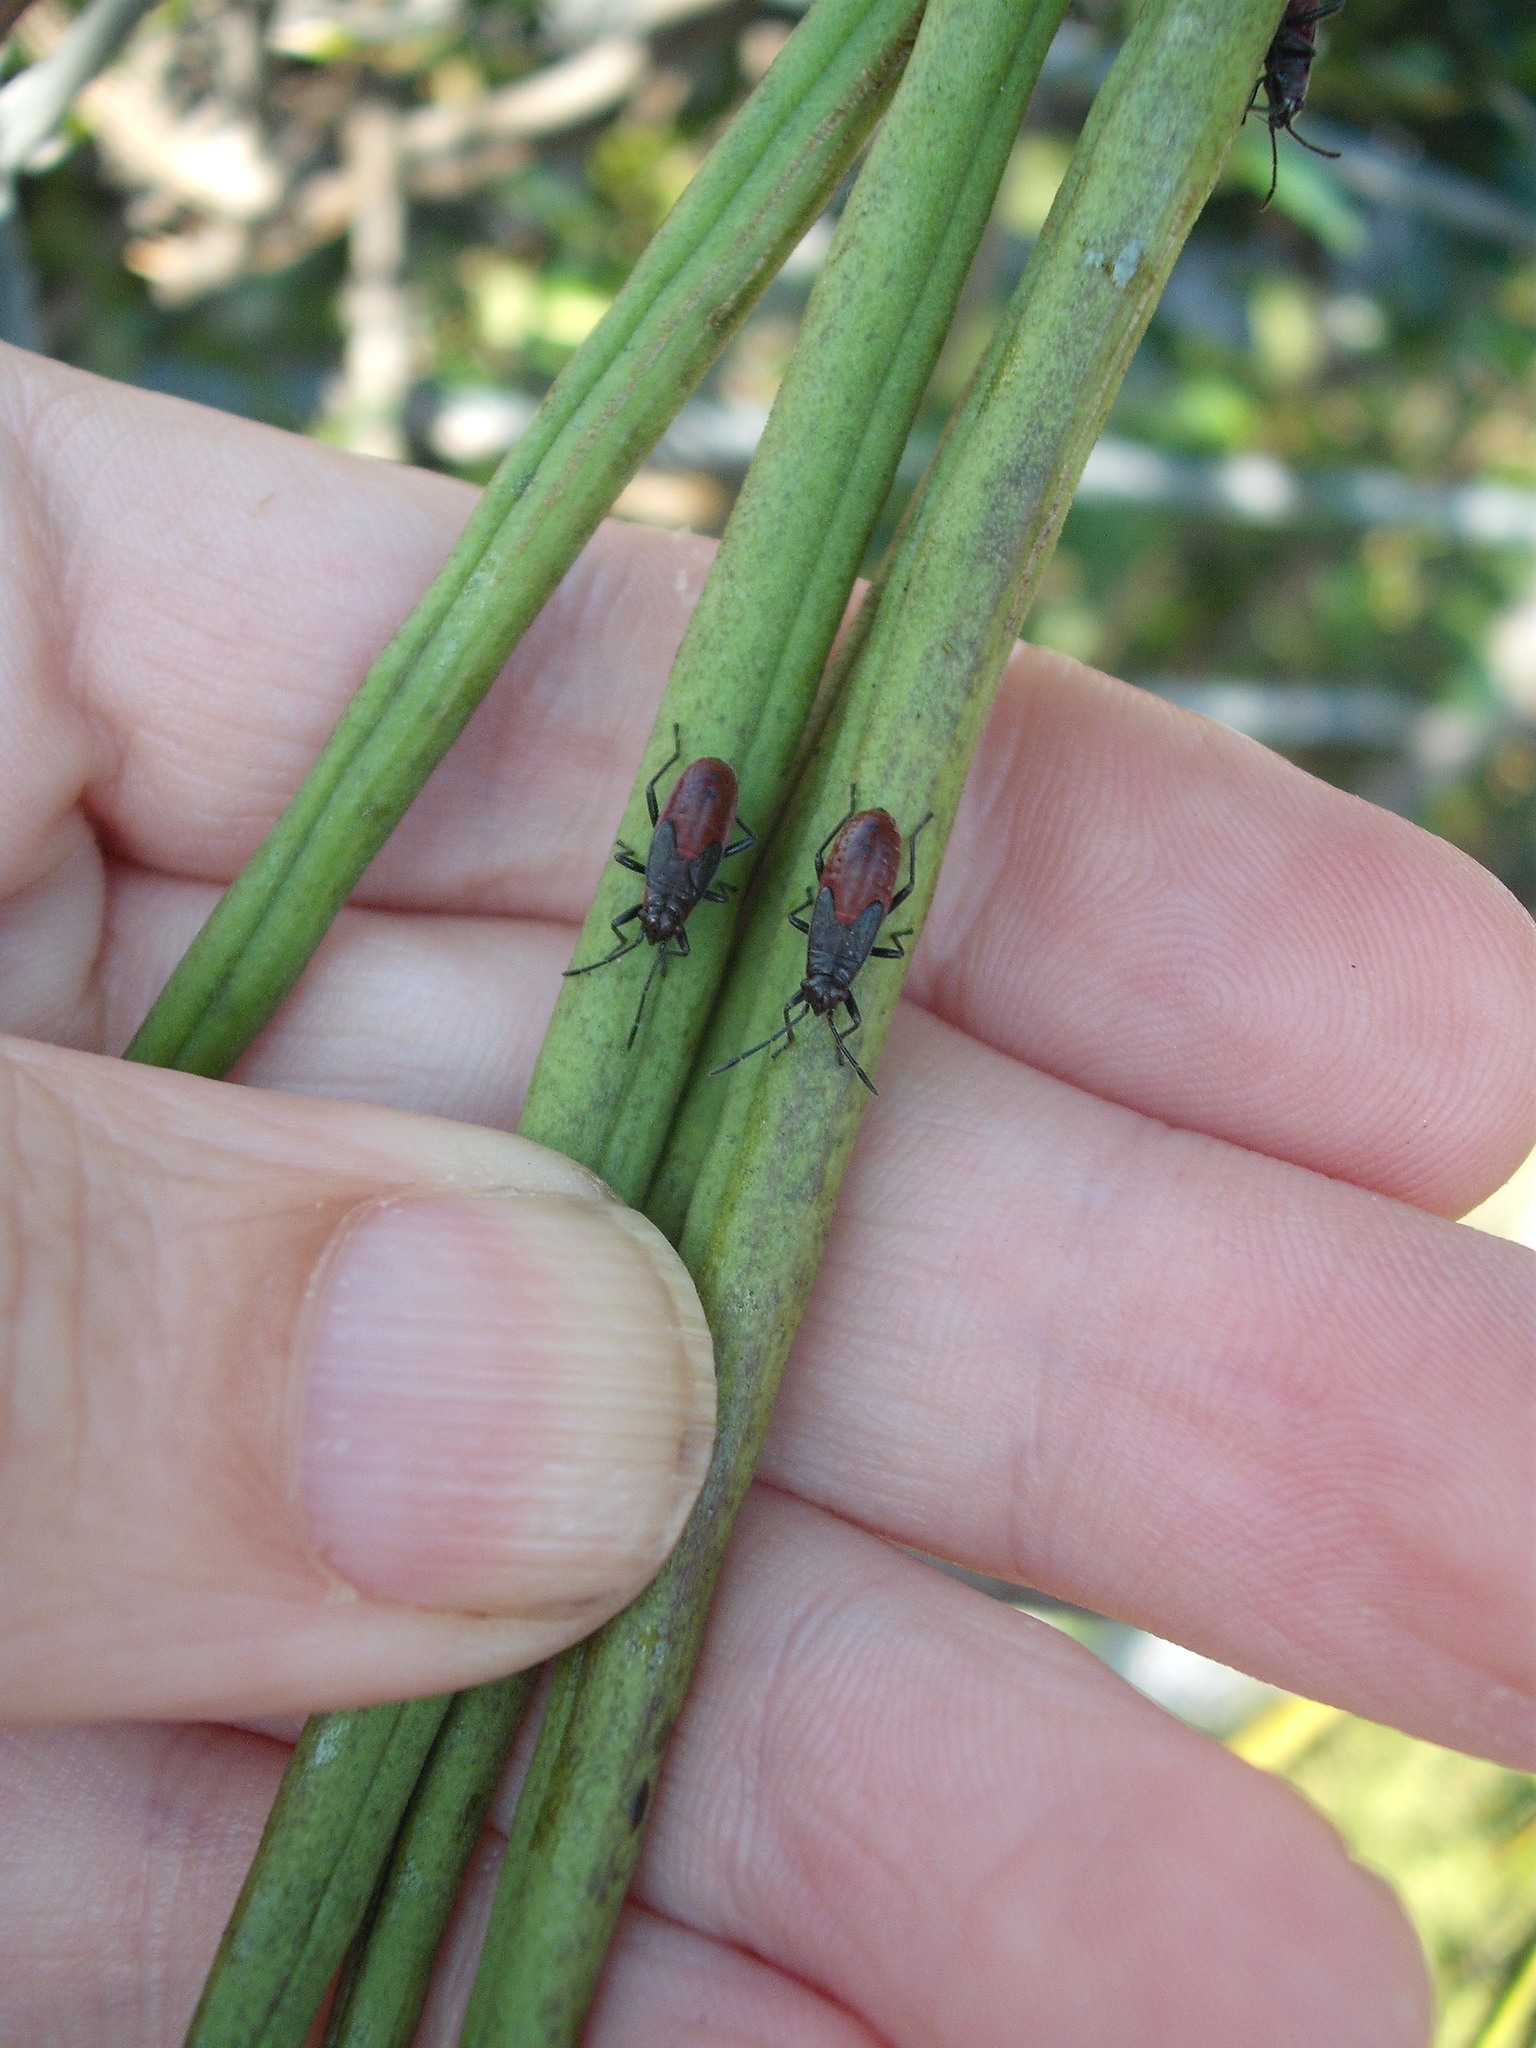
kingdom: Animalia
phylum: Arthropoda
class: Insecta
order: Hemiptera
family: Lygaeidae
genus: Arocatus
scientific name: Arocatus rusticus
